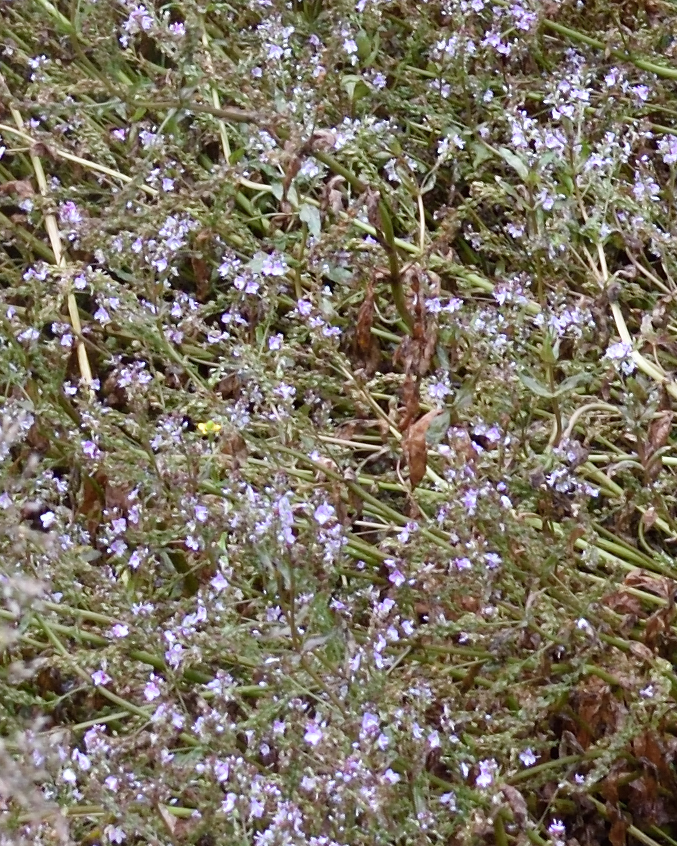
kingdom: Plantae
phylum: Tracheophyta
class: Magnoliopsida
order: Lamiales
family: Plantaginaceae
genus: Veronica
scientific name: Veronica anagallis-aquatica
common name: Water speedwell
